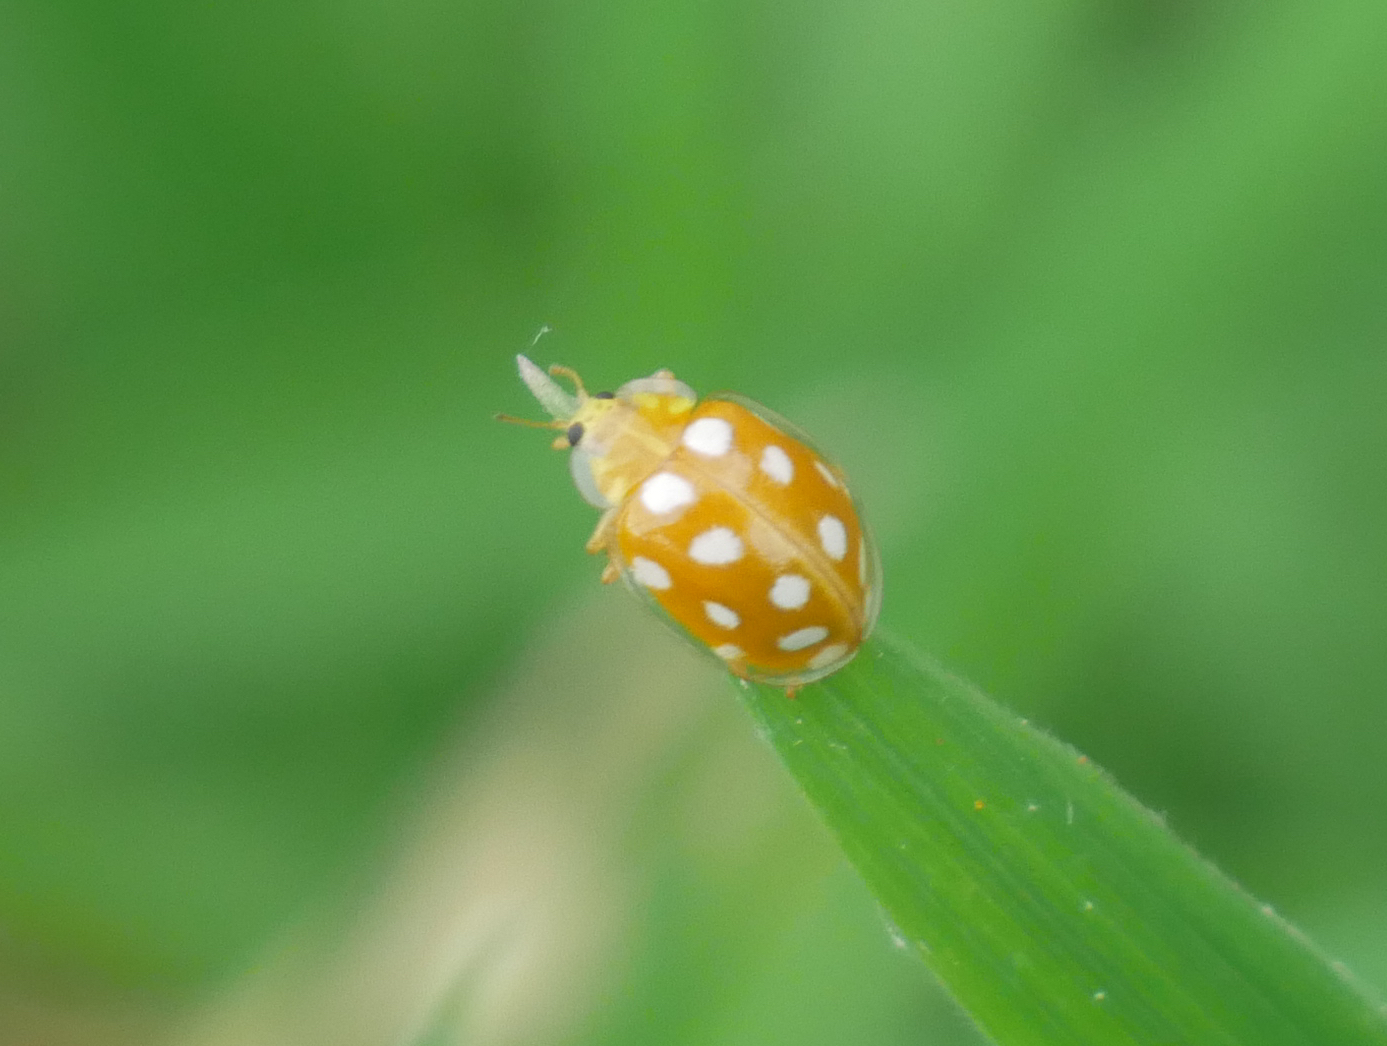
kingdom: Animalia
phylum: Arthropoda
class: Insecta
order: Coleoptera
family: Coccinellidae
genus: Halyzia
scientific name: Halyzia sedecimguttata
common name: Orange ladybird
